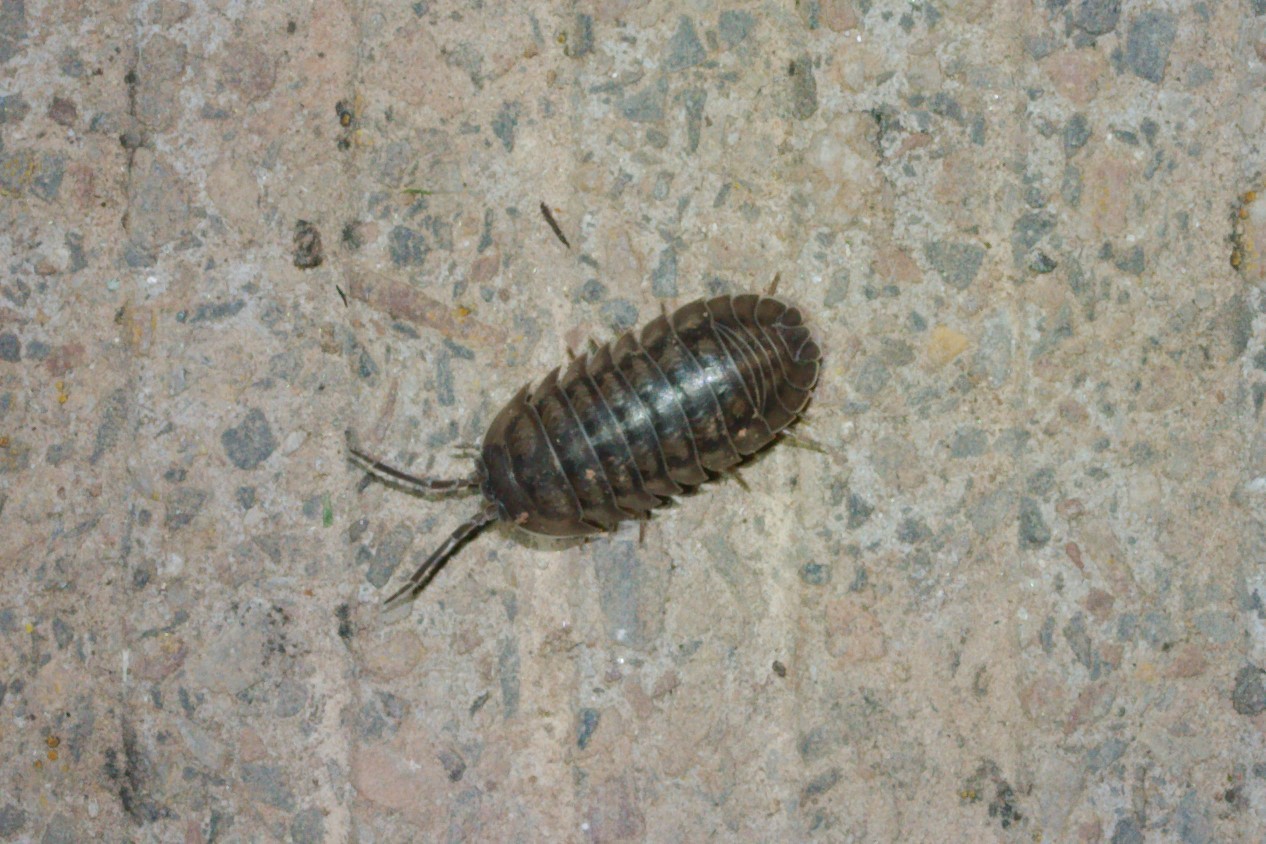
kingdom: Animalia
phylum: Arthropoda
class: Malacostraca
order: Isopoda
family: Armadillidiidae
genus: Armadillidium
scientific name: Armadillidium nasatum
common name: Isopod
